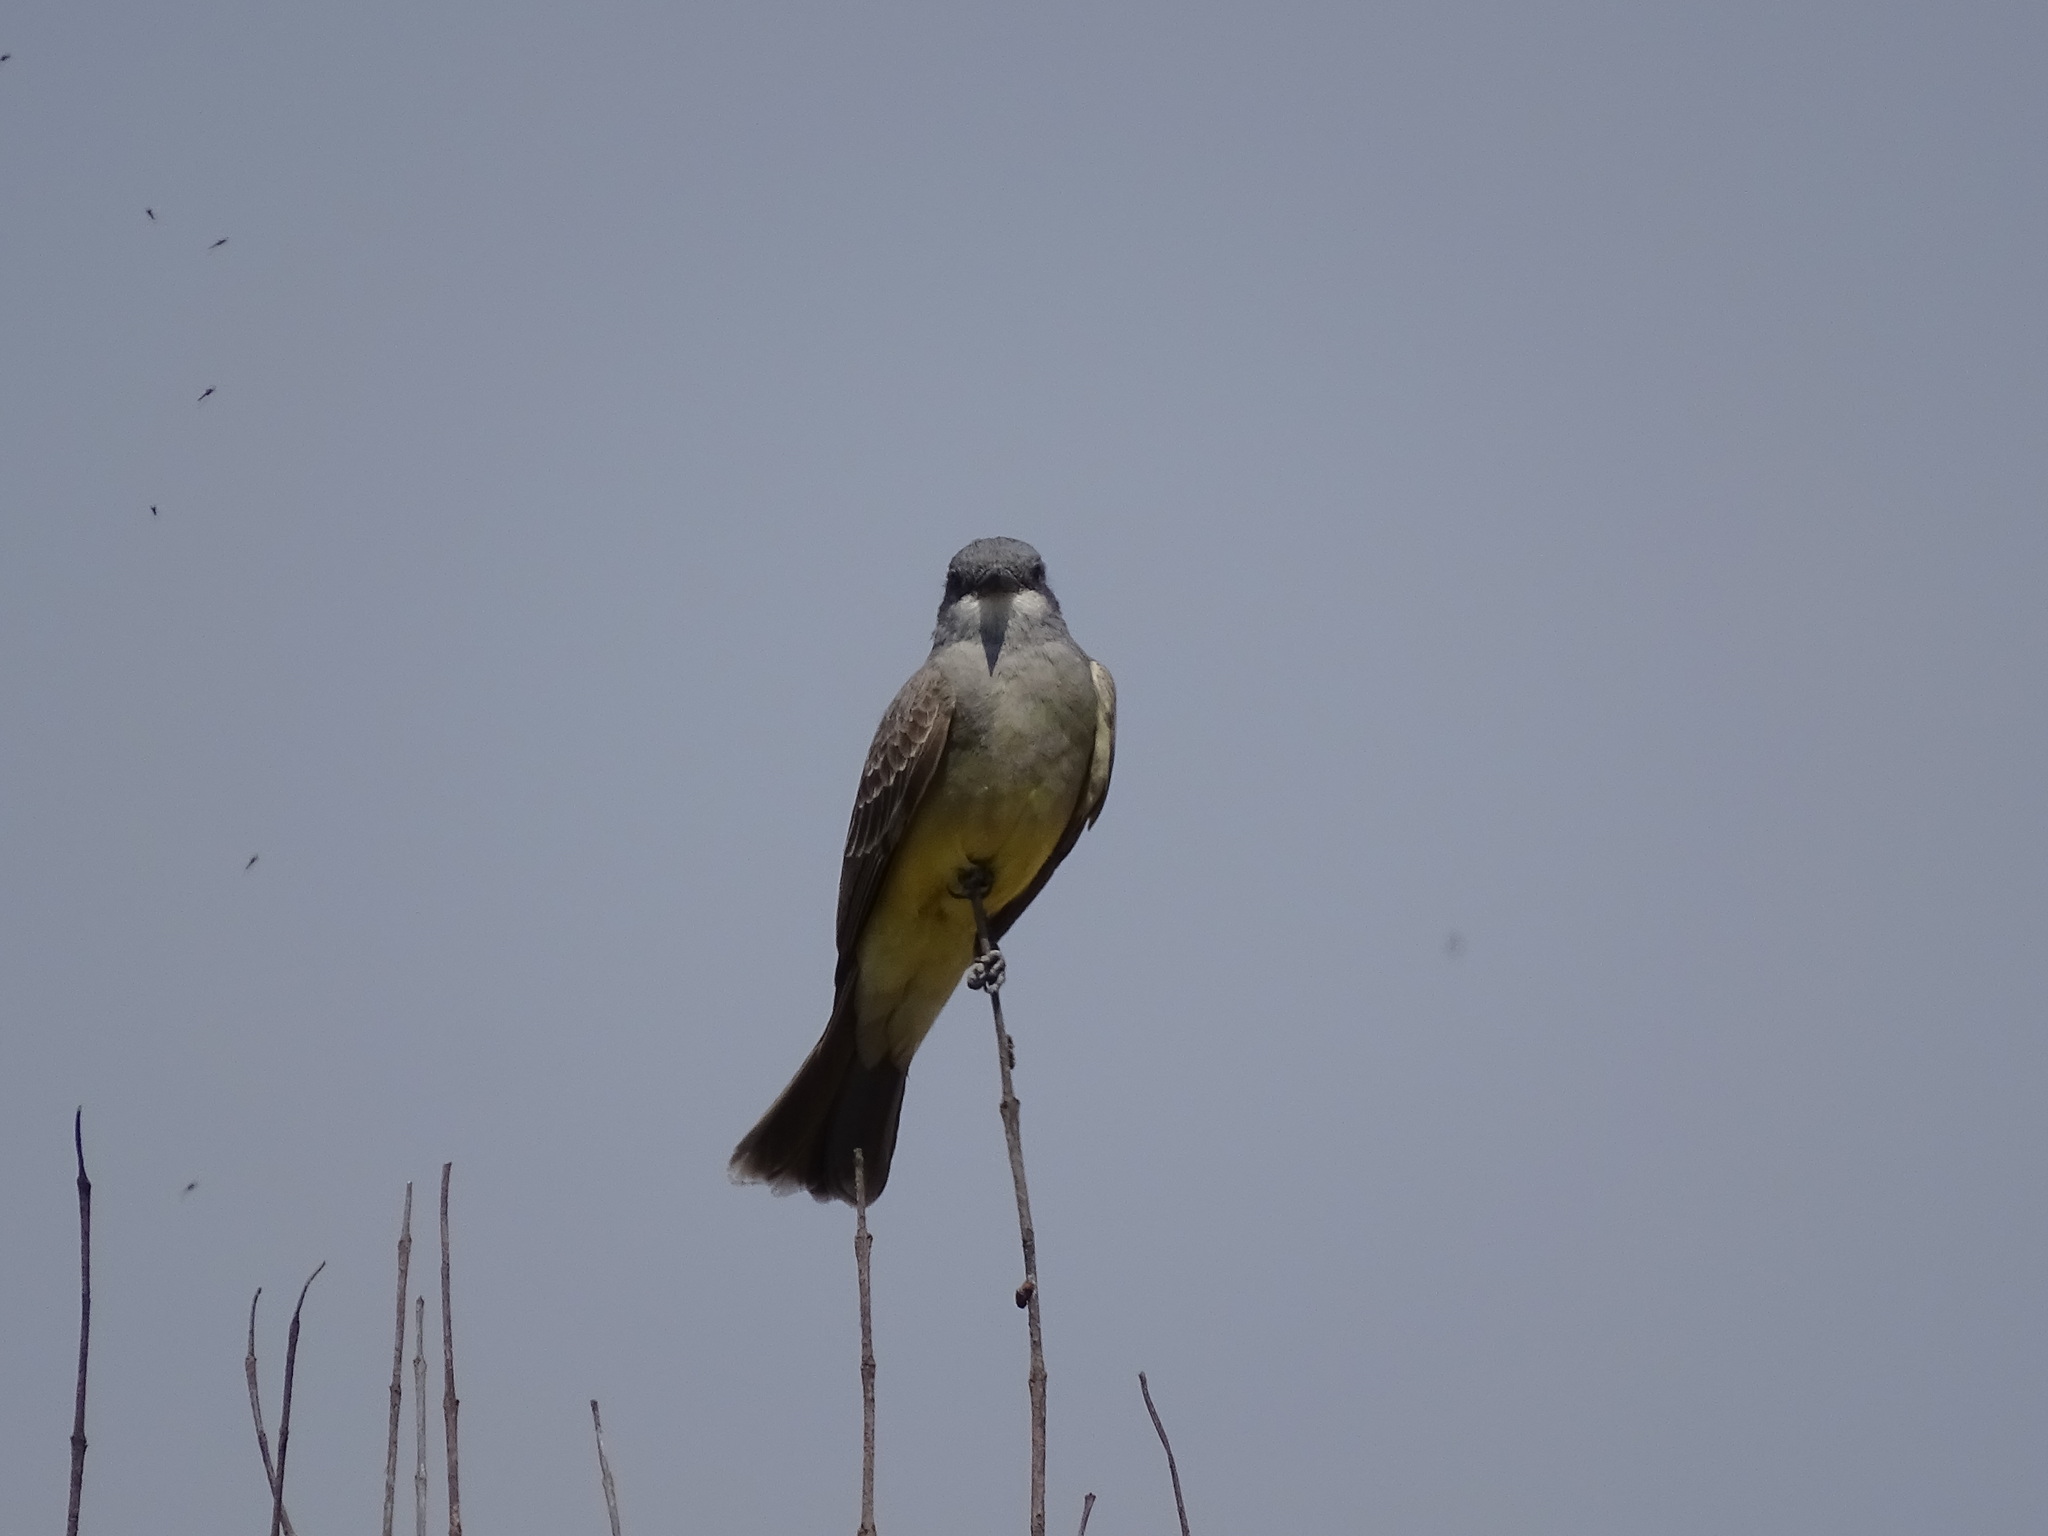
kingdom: Animalia
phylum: Chordata
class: Aves
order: Passeriformes
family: Tyrannidae
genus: Tyrannus
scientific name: Tyrannus vociferans
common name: Cassin's kingbird
